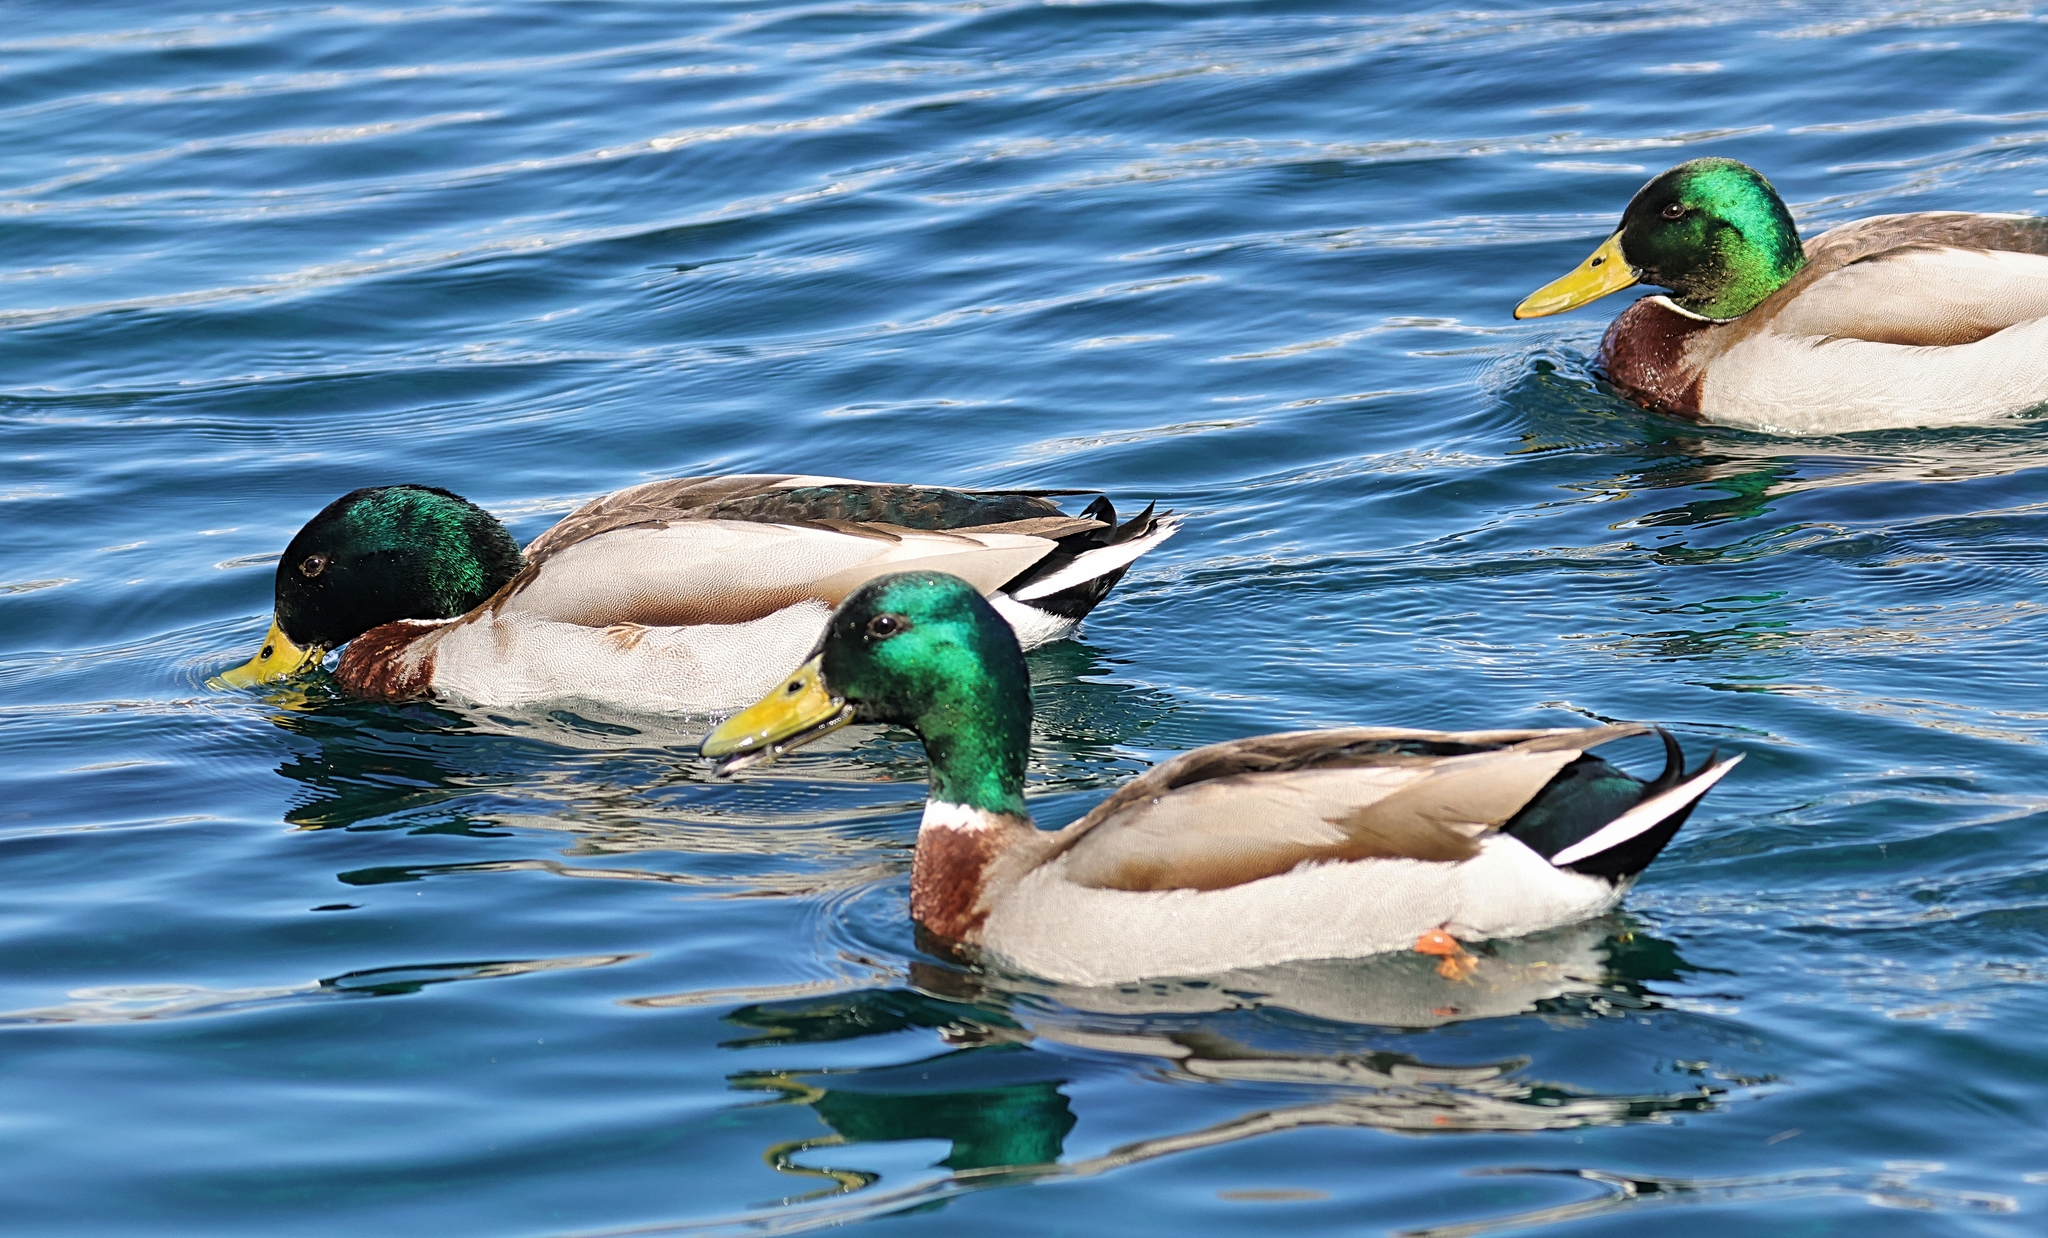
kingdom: Animalia
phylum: Chordata
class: Aves
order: Anseriformes
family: Anatidae
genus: Anas
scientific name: Anas platyrhynchos
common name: Mallard
